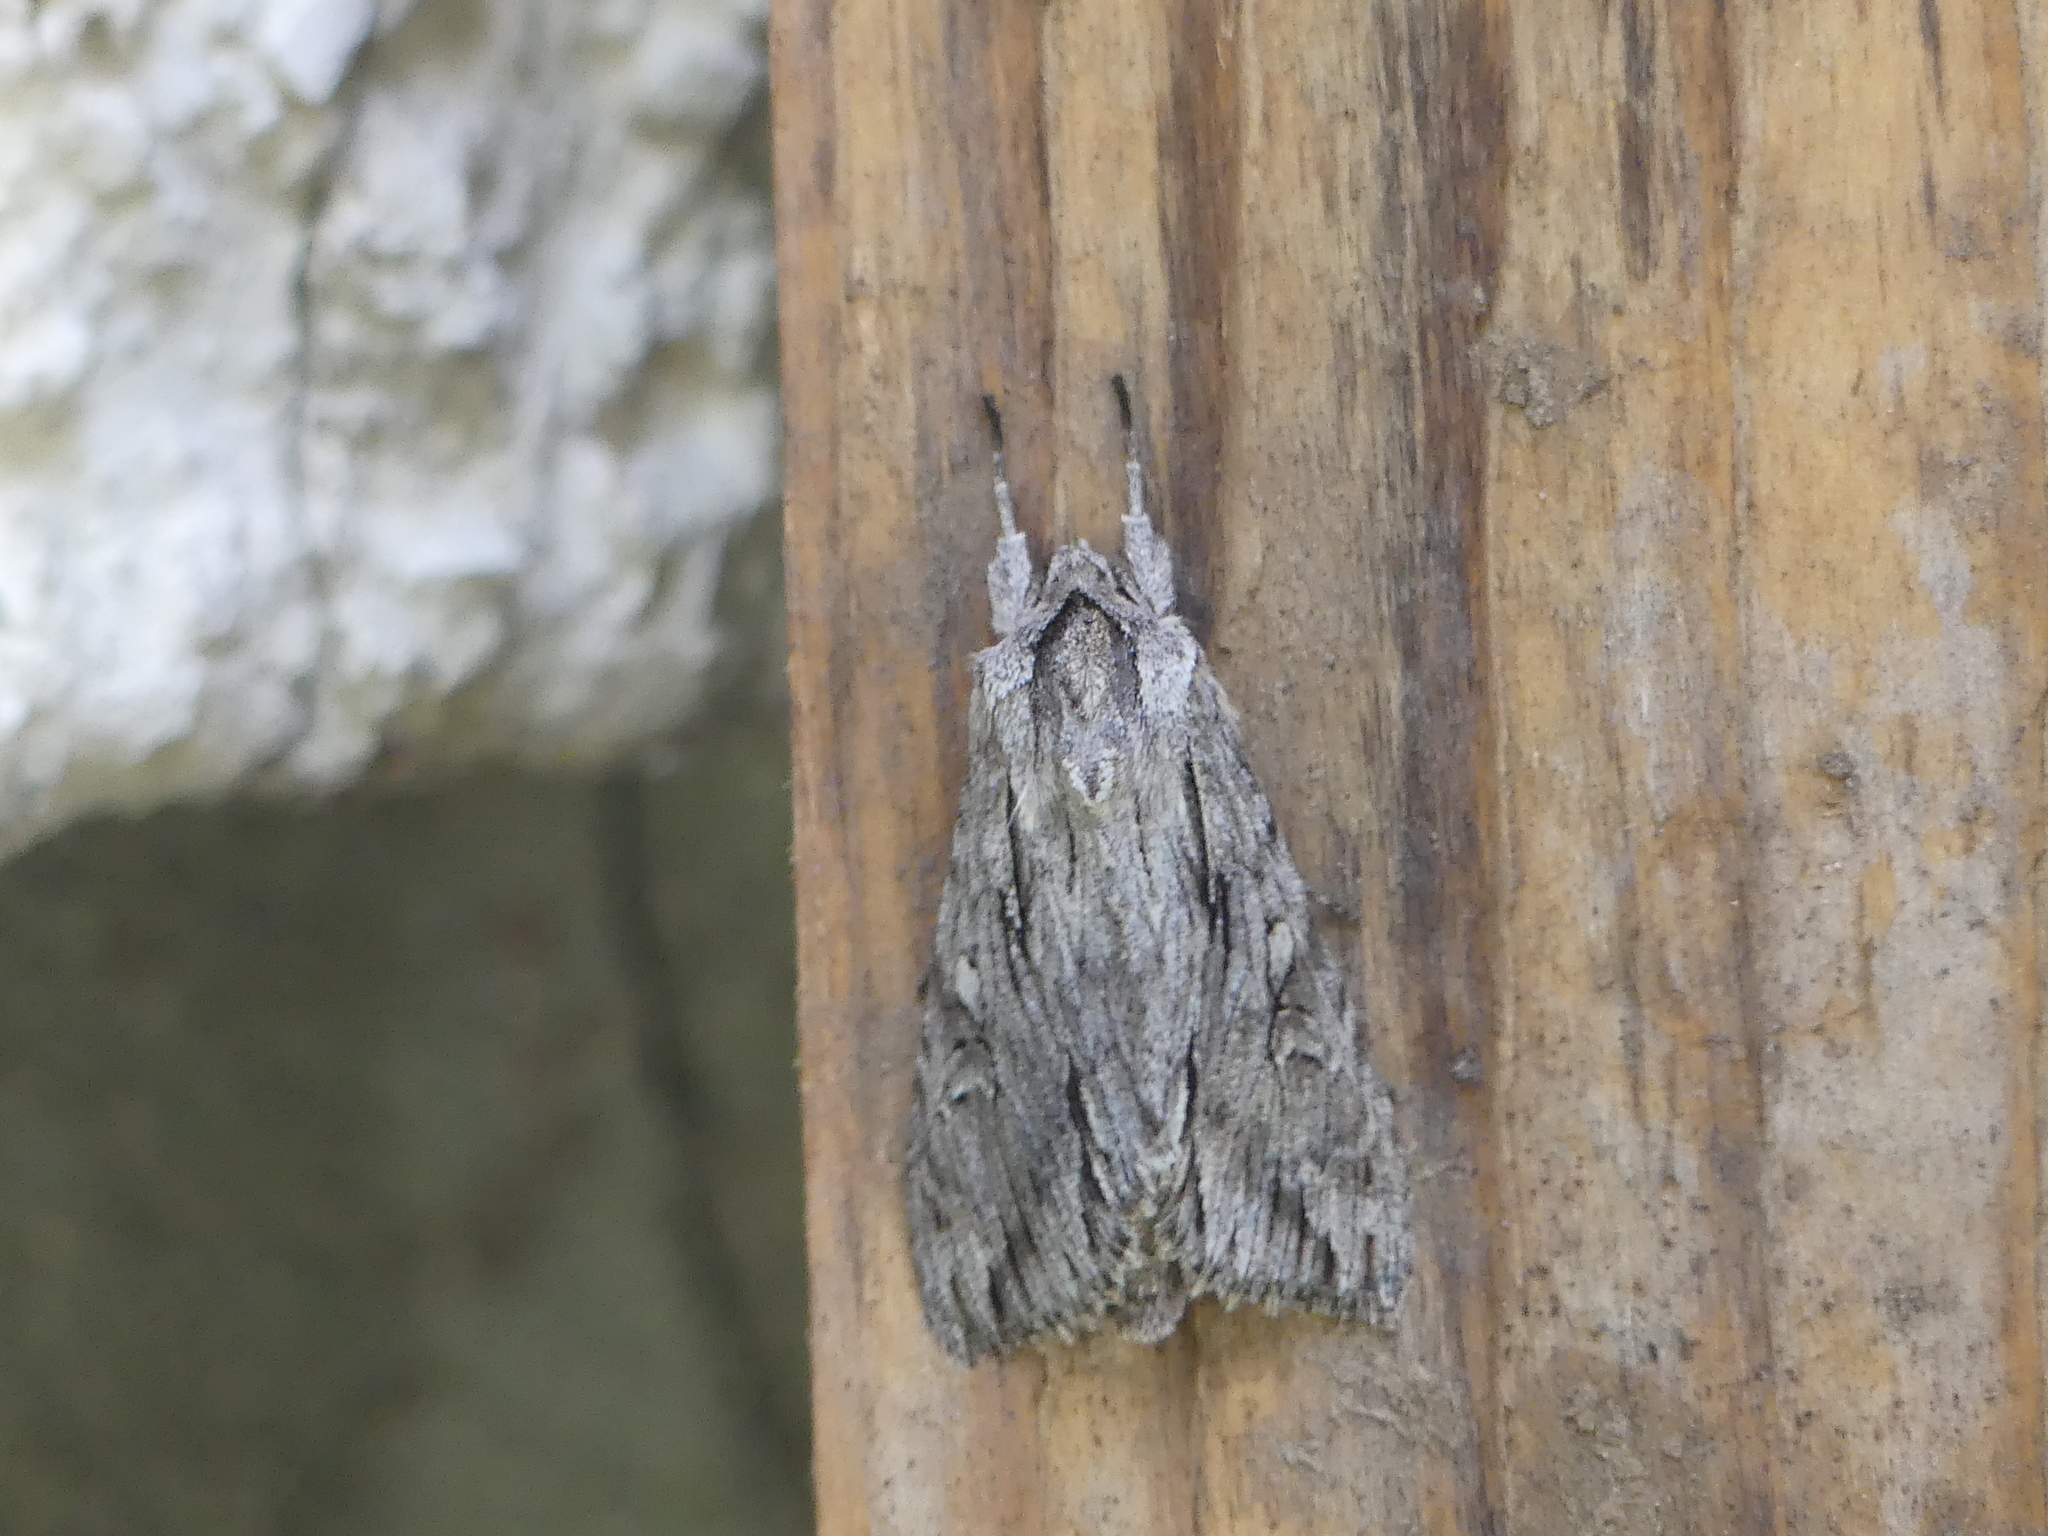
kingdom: Animalia
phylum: Arthropoda
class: Insecta
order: Lepidoptera
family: Noctuidae
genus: Auchmis
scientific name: Auchmis detersa
